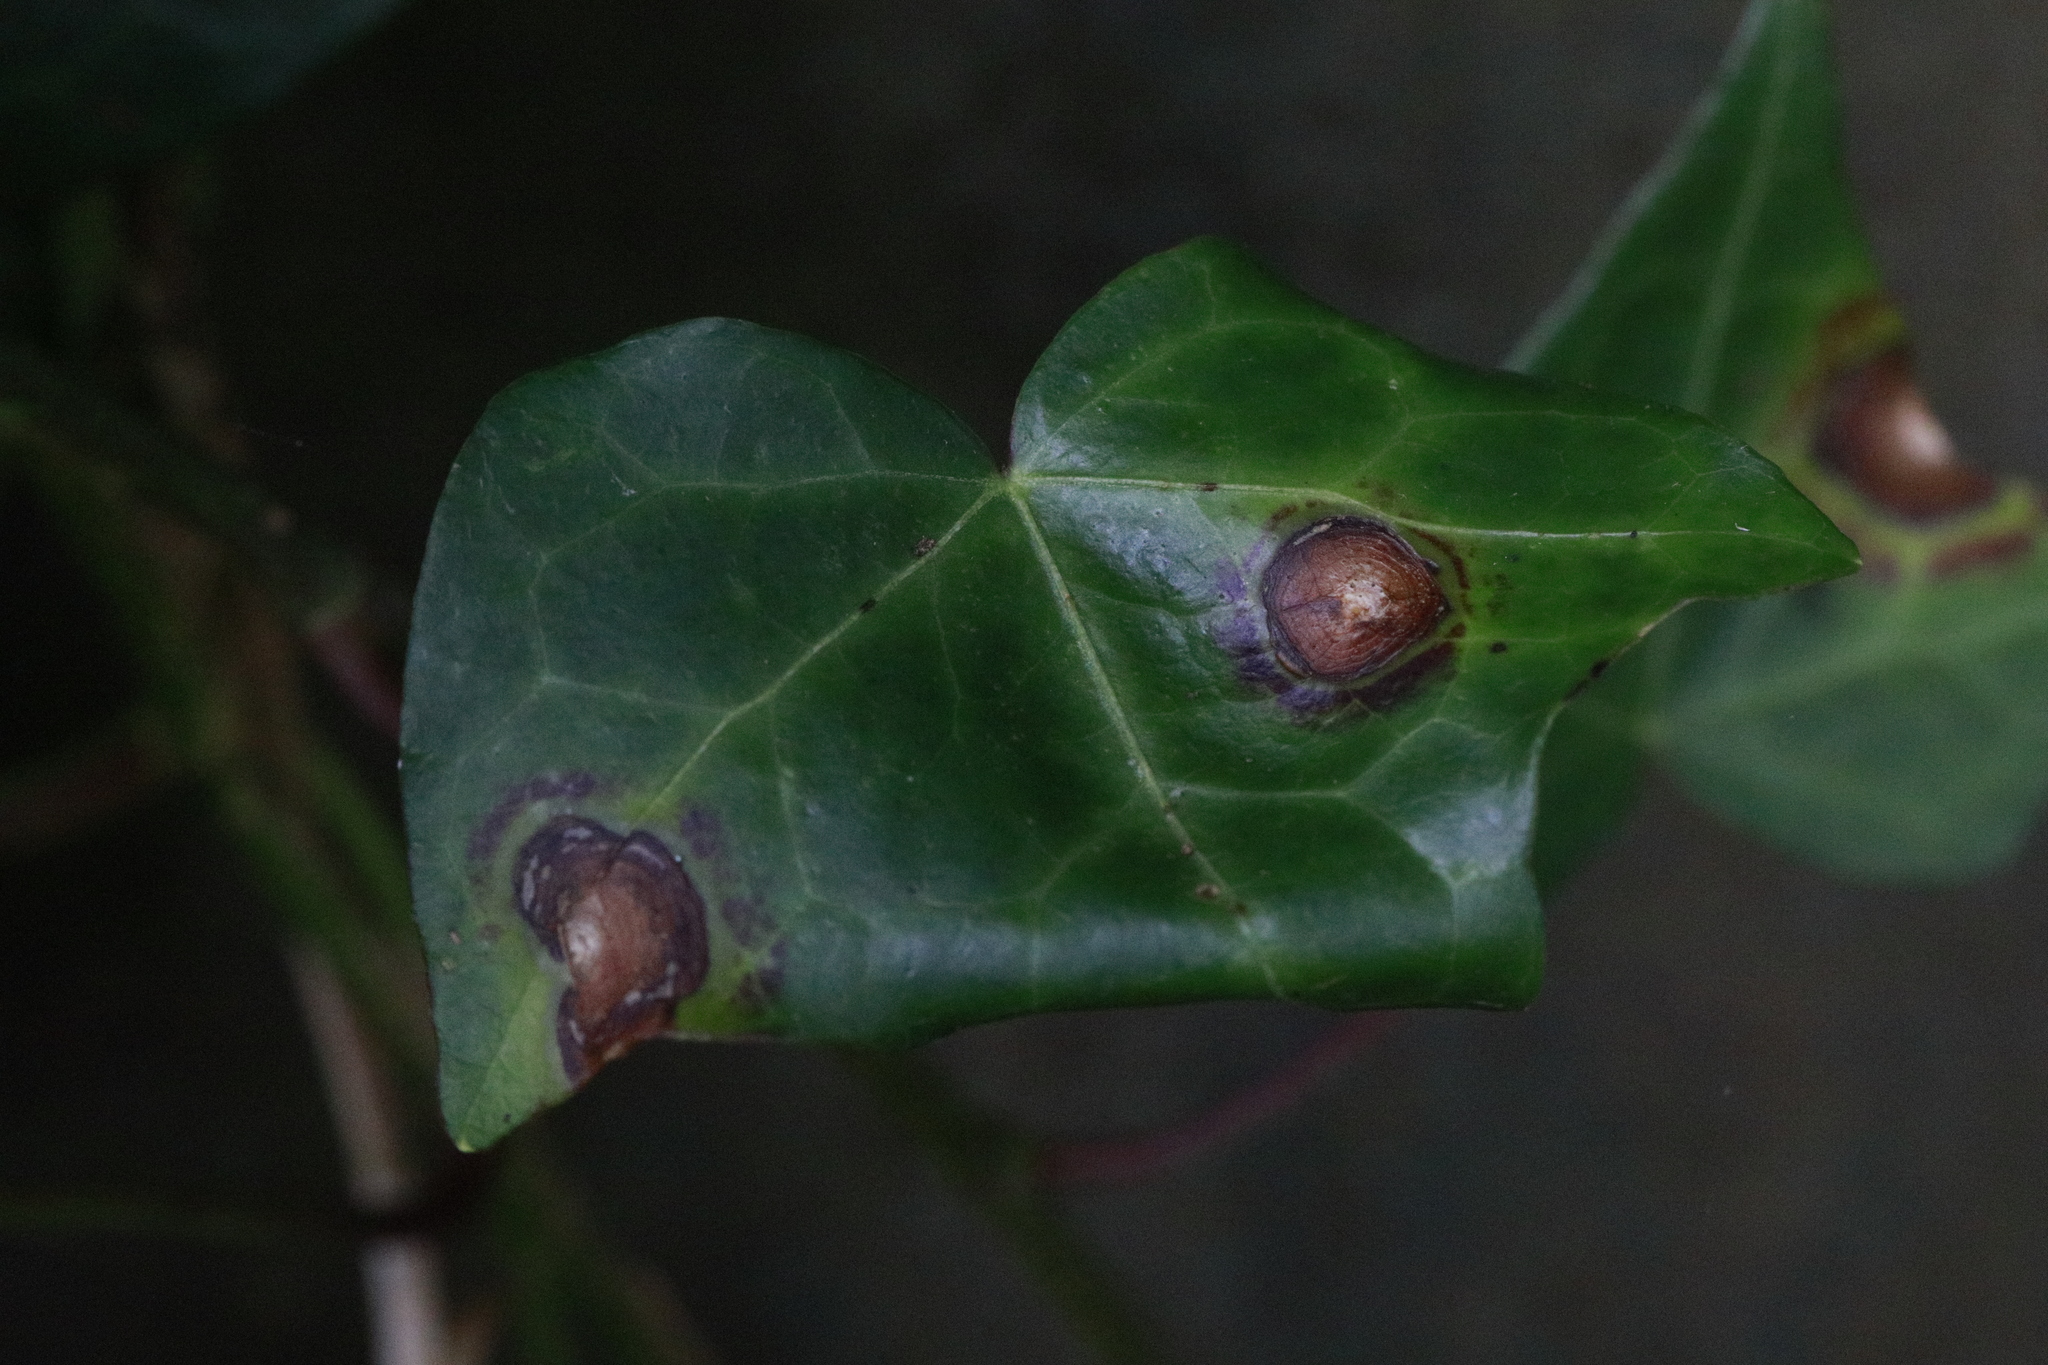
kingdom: Fungi
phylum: Ascomycota
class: Dothideomycetes
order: Pleosporales
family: Didymellaceae
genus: Boeremia
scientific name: Boeremia hedericola
